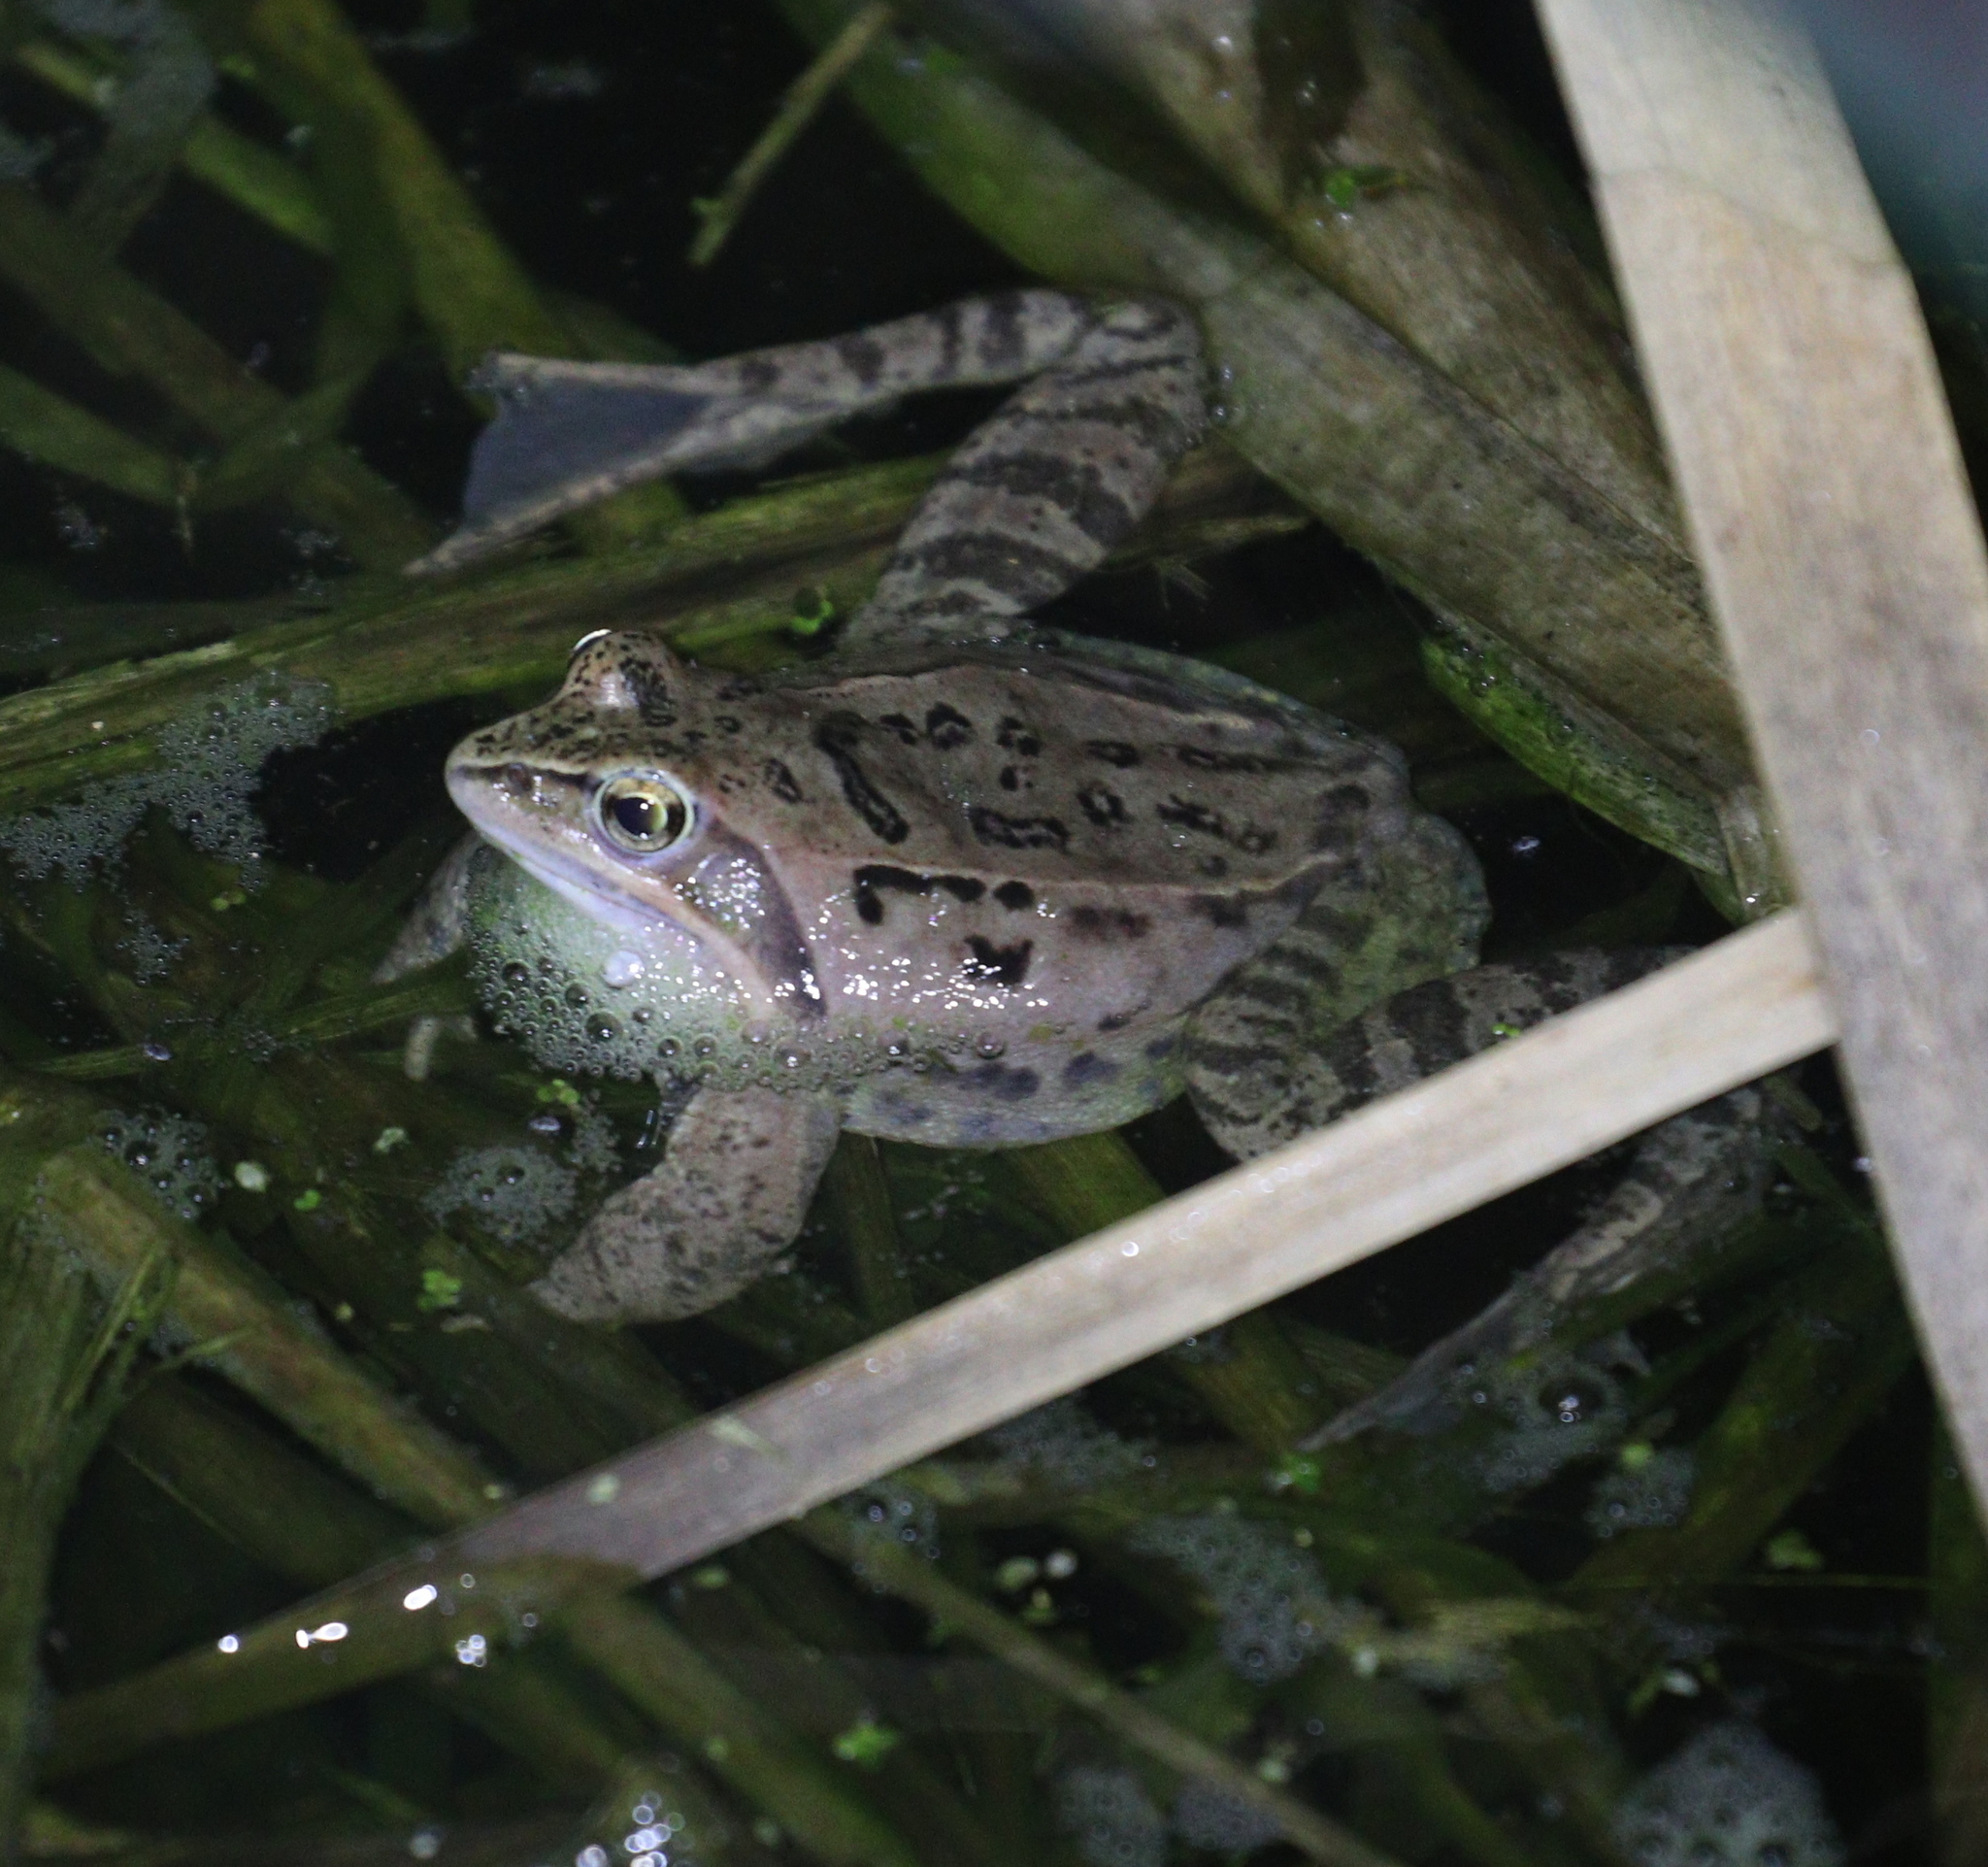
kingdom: Animalia
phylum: Chordata
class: Amphibia
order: Anura
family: Ranidae
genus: Rana
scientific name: Rana arvalis
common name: Moor frog
